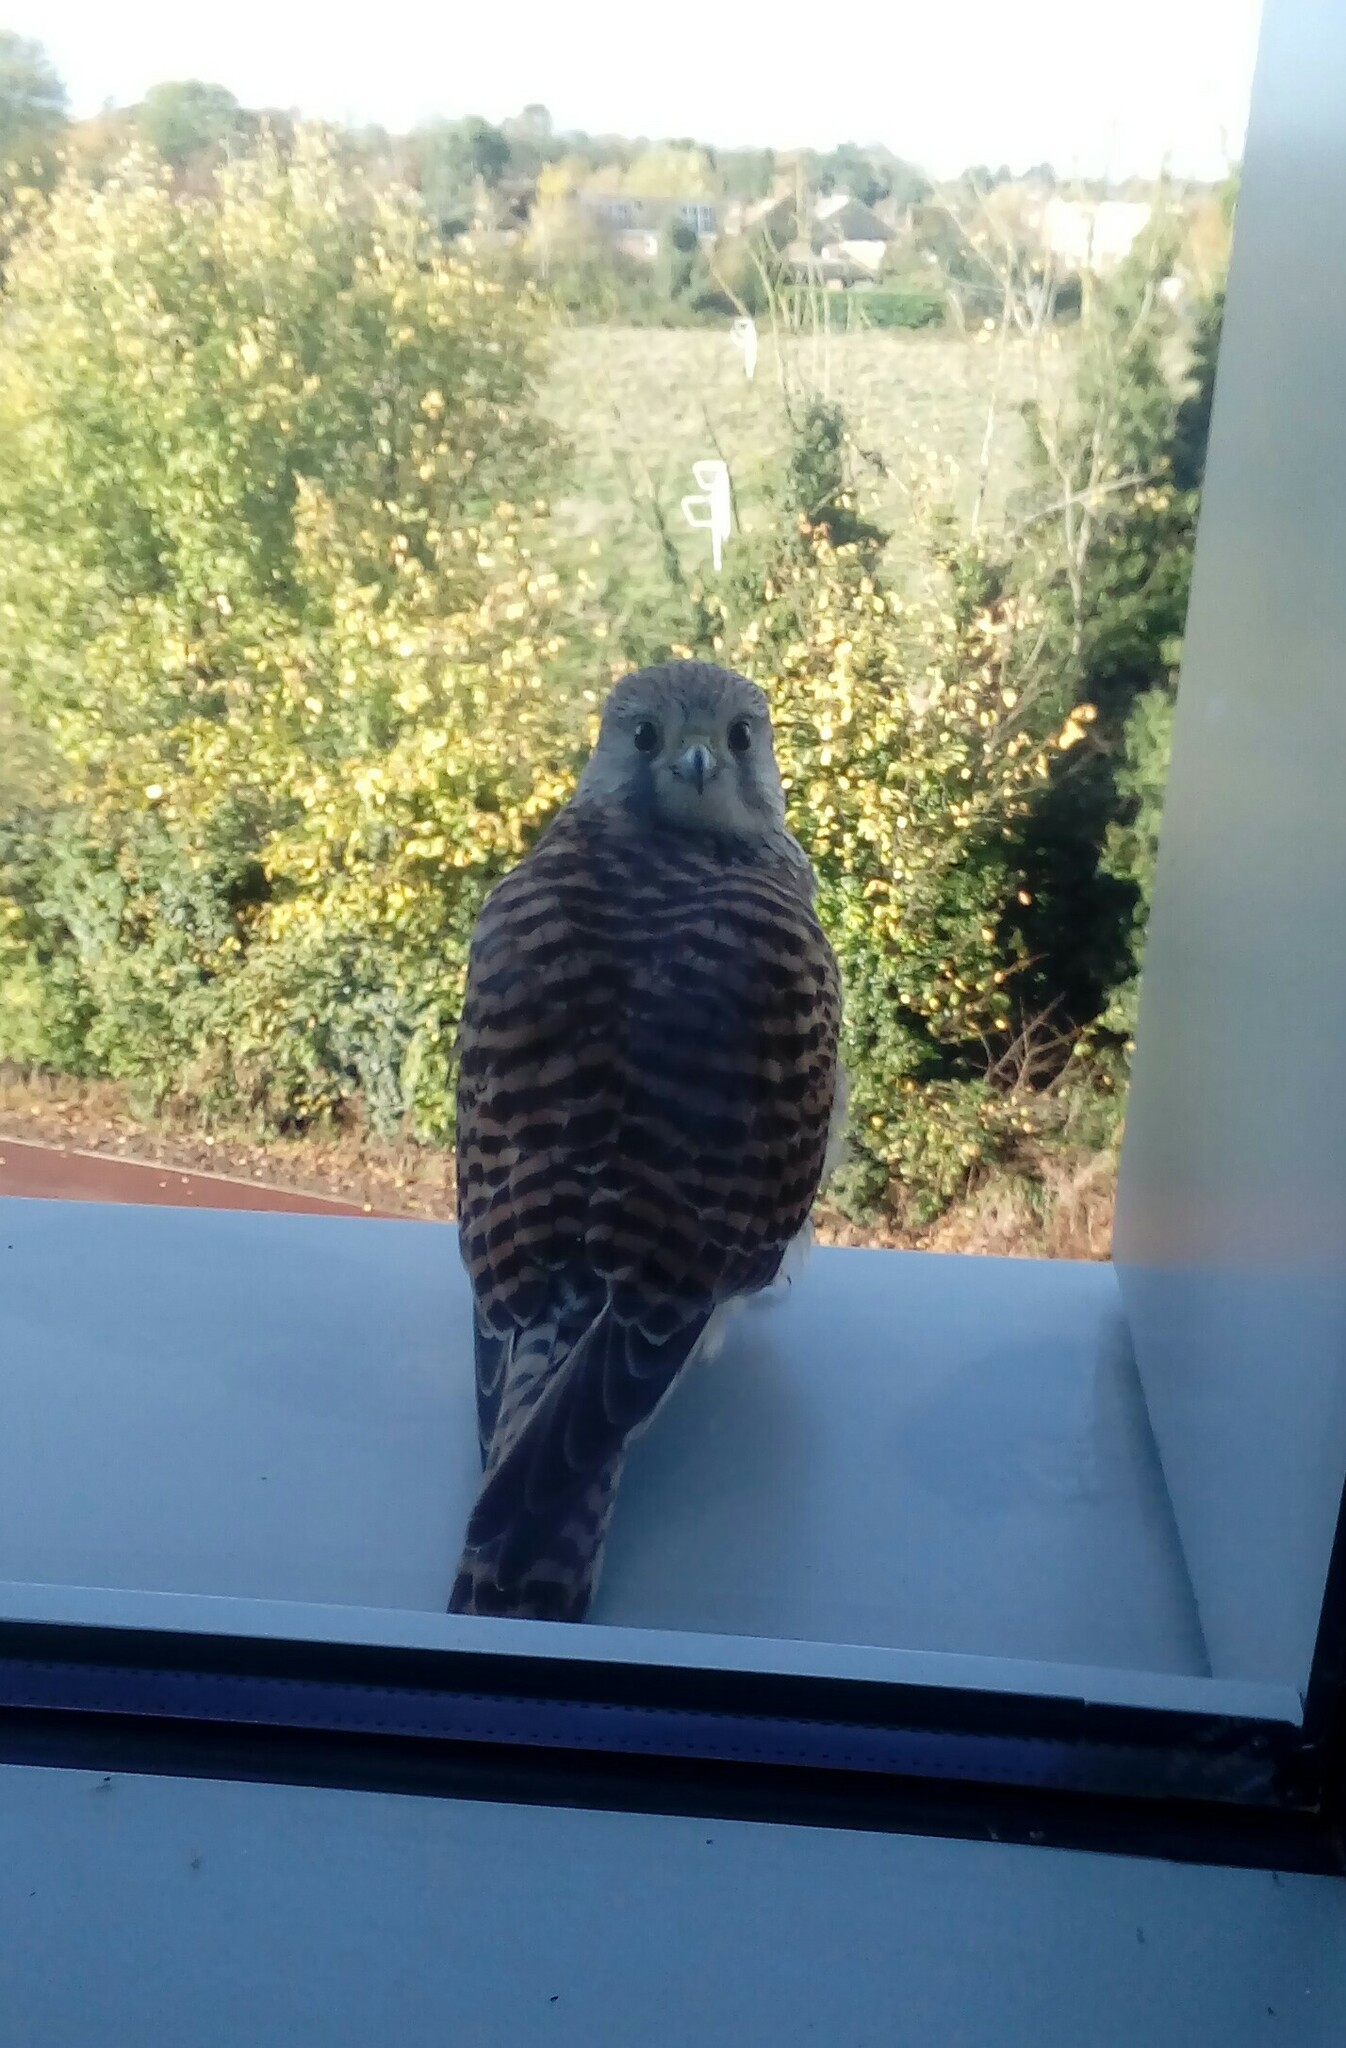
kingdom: Animalia
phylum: Chordata
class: Aves
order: Falconiformes
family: Falconidae
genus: Falco
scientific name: Falco tinnunculus
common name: Common kestrel
